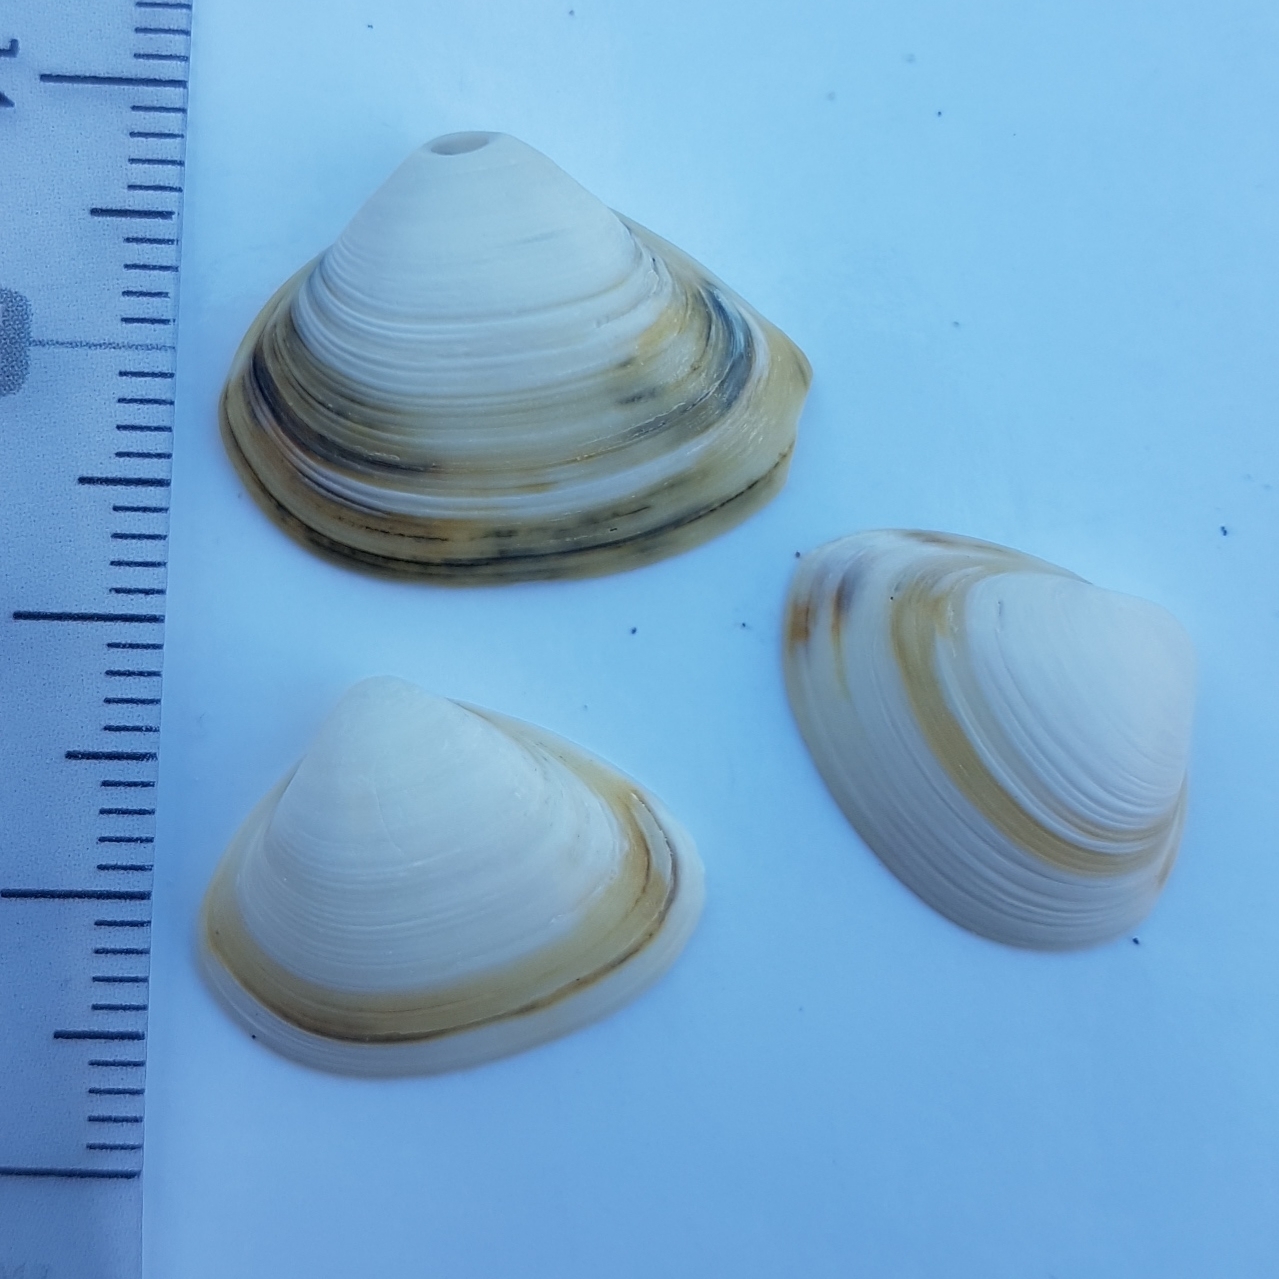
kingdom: Animalia
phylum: Mollusca
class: Bivalvia
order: Venerida
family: Mactridae
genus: Spisula
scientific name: Spisula subtruncata
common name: Cut trough shell
